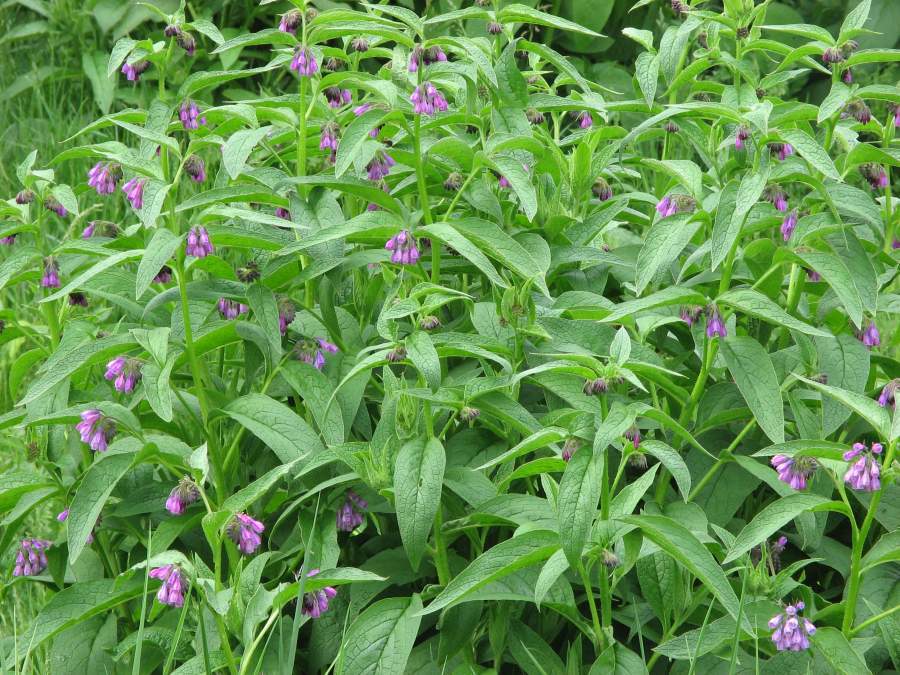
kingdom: Plantae
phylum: Tracheophyta
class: Magnoliopsida
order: Boraginales
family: Boraginaceae
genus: Symphytum
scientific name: Symphytum officinale
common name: Common comfrey
